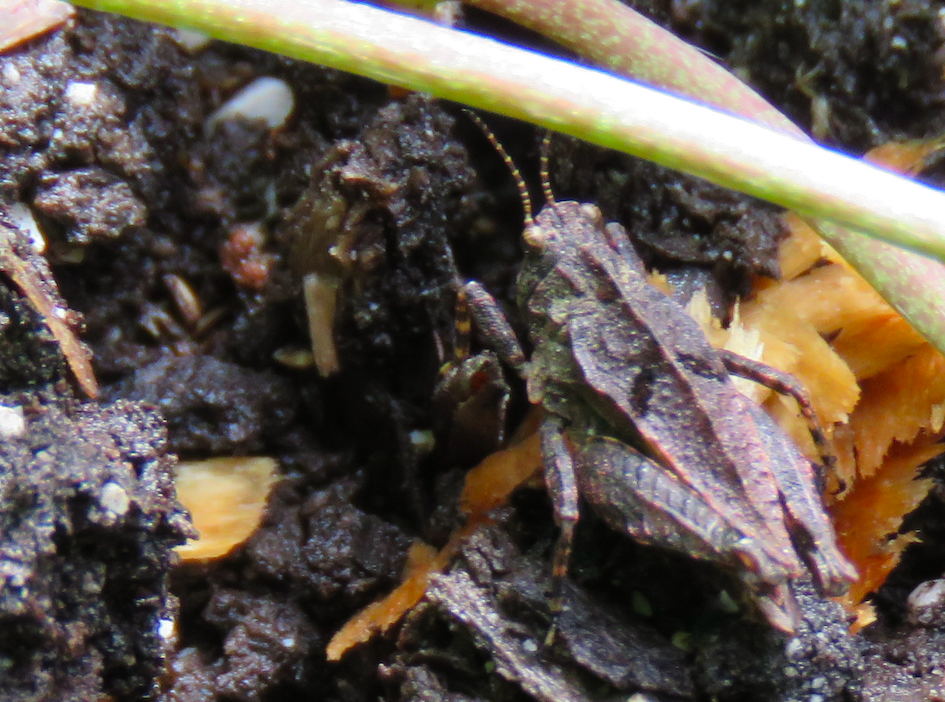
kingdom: Animalia
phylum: Arthropoda
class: Insecta
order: Orthoptera
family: Tetrigidae
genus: Tetrix
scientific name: Tetrix transsylvanica
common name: Transsylvanian wingless groundhopper
